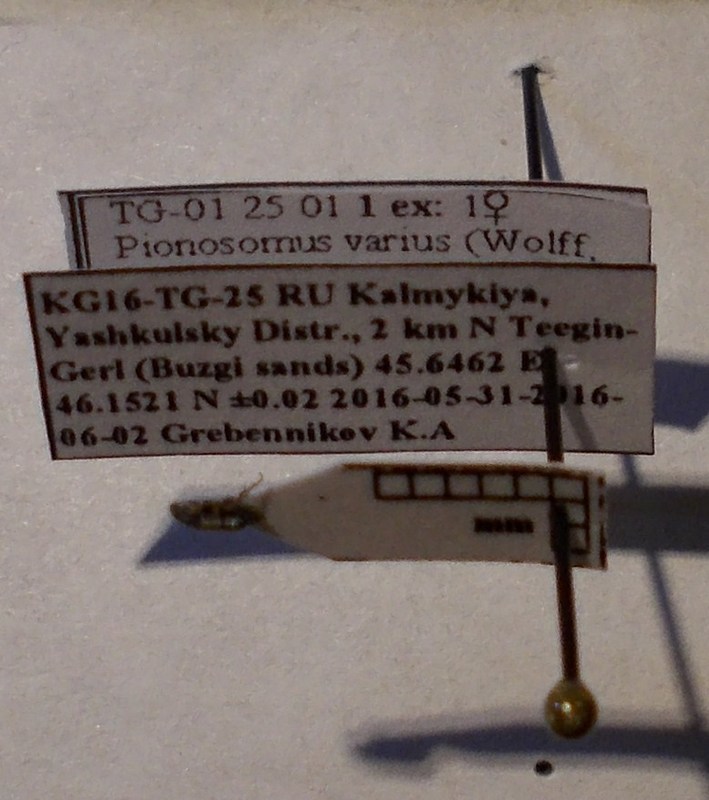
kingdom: Animalia
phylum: Arthropoda
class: Insecta
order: Hemiptera
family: Rhyparochromidae
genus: Pionosomus
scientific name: Pionosomus varius
